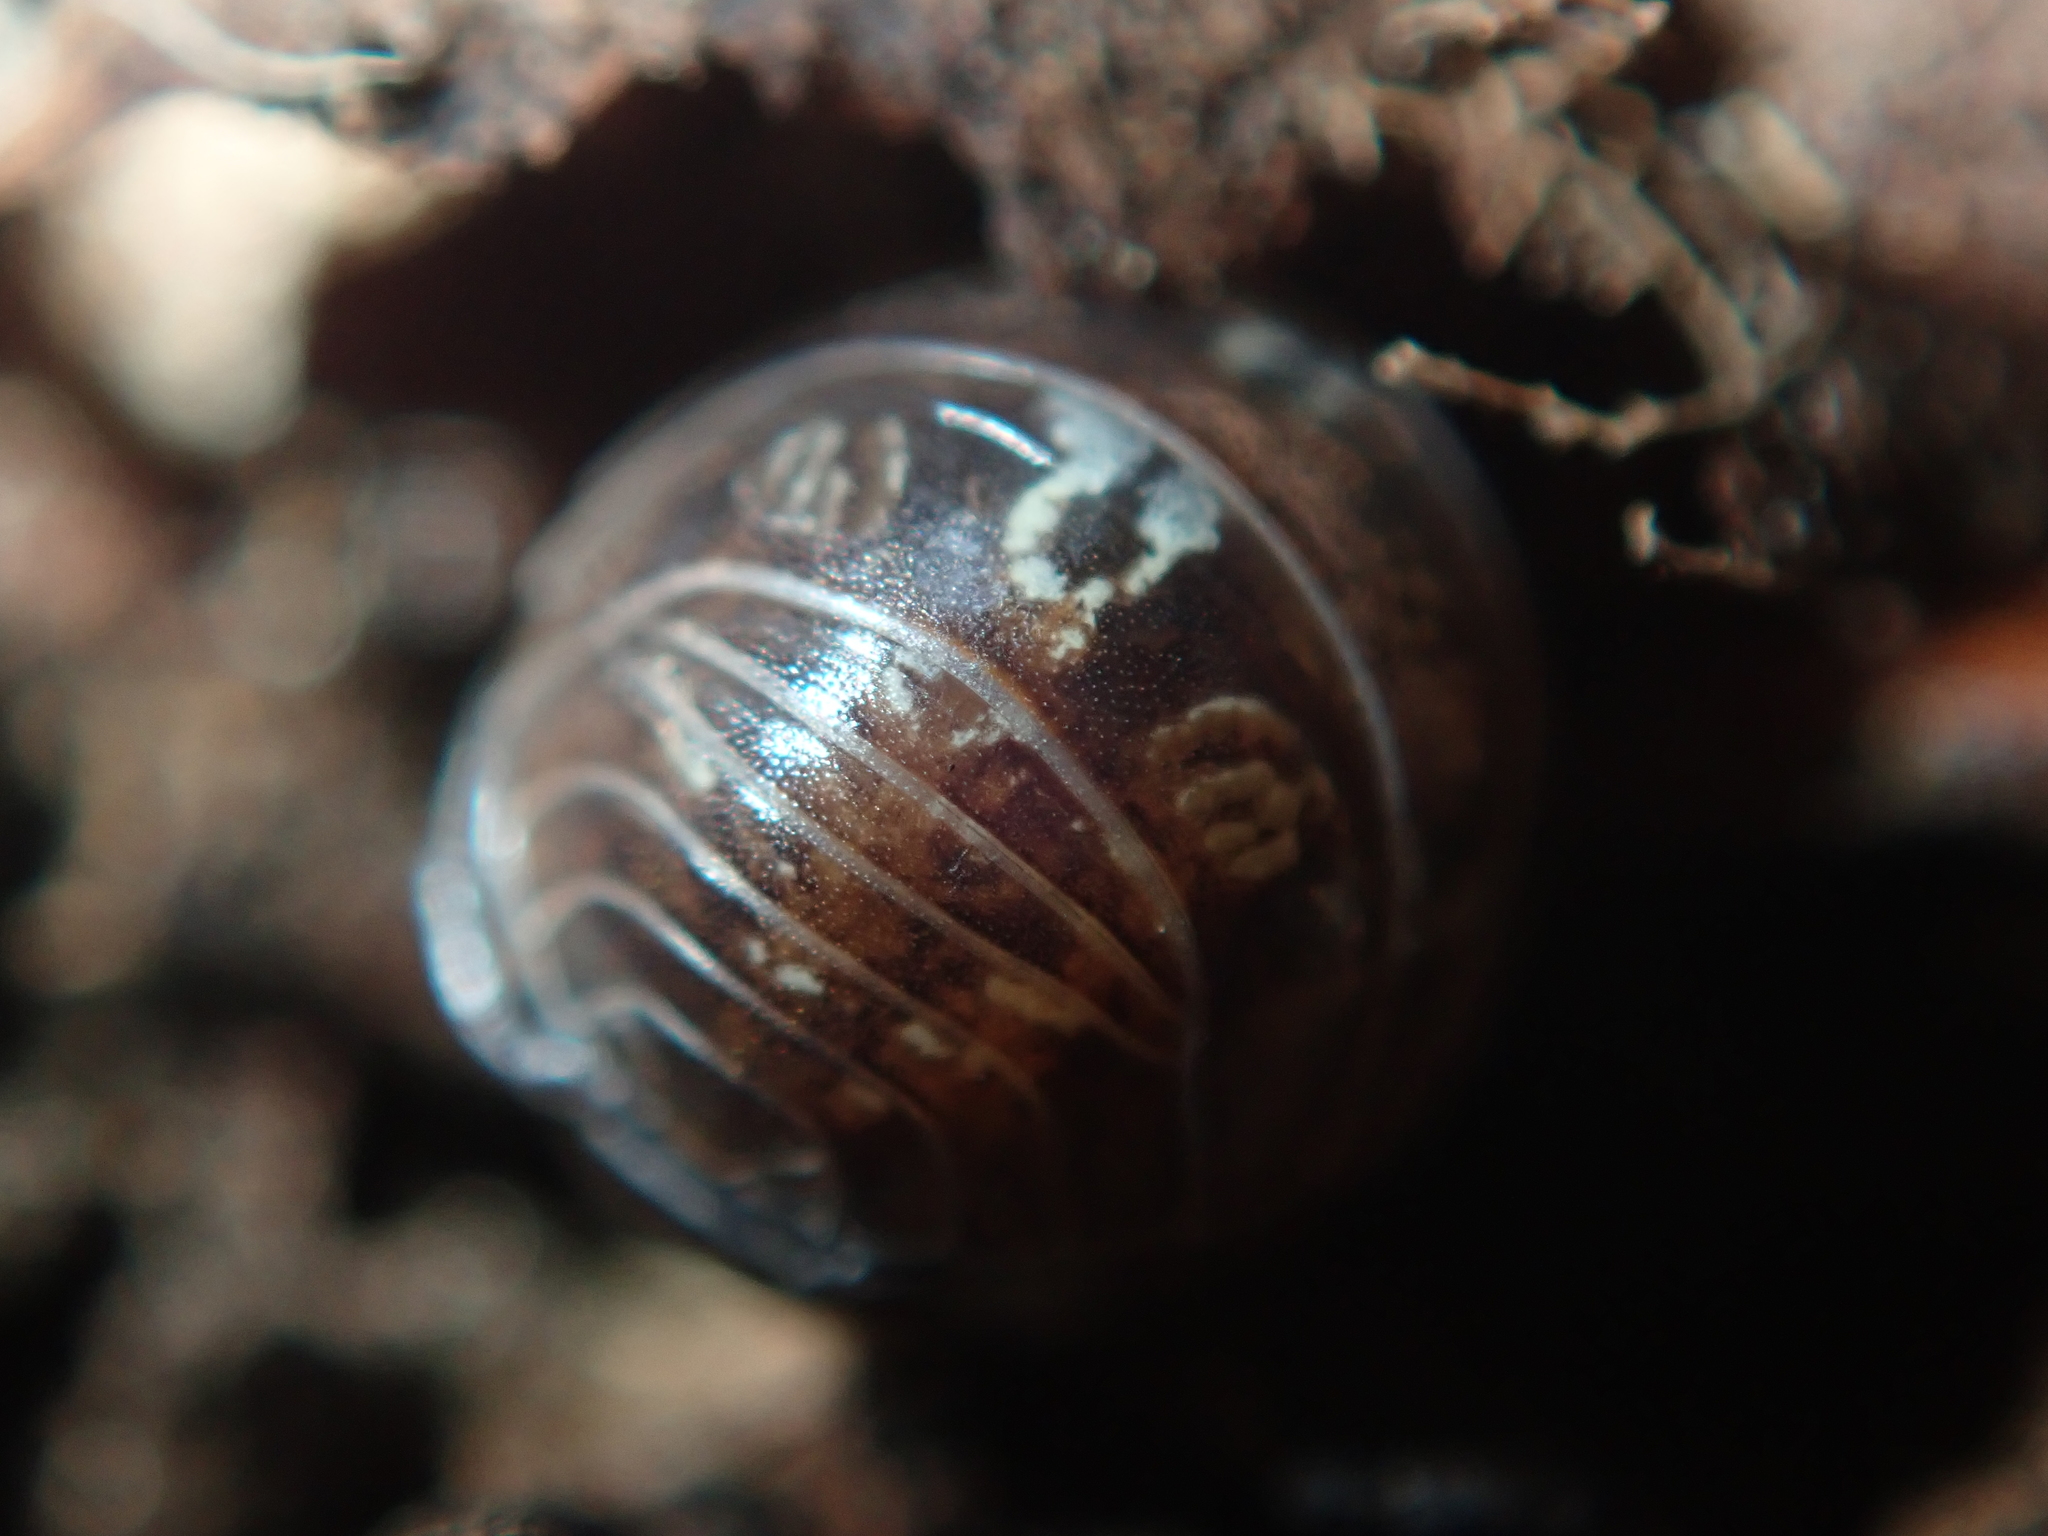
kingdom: Animalia
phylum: Arthropoda
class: Malacostraca
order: Isopoda
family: Armadillidiidae
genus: Armadillidium
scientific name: Armadillidium vulgare
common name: Common pill woodlouse
